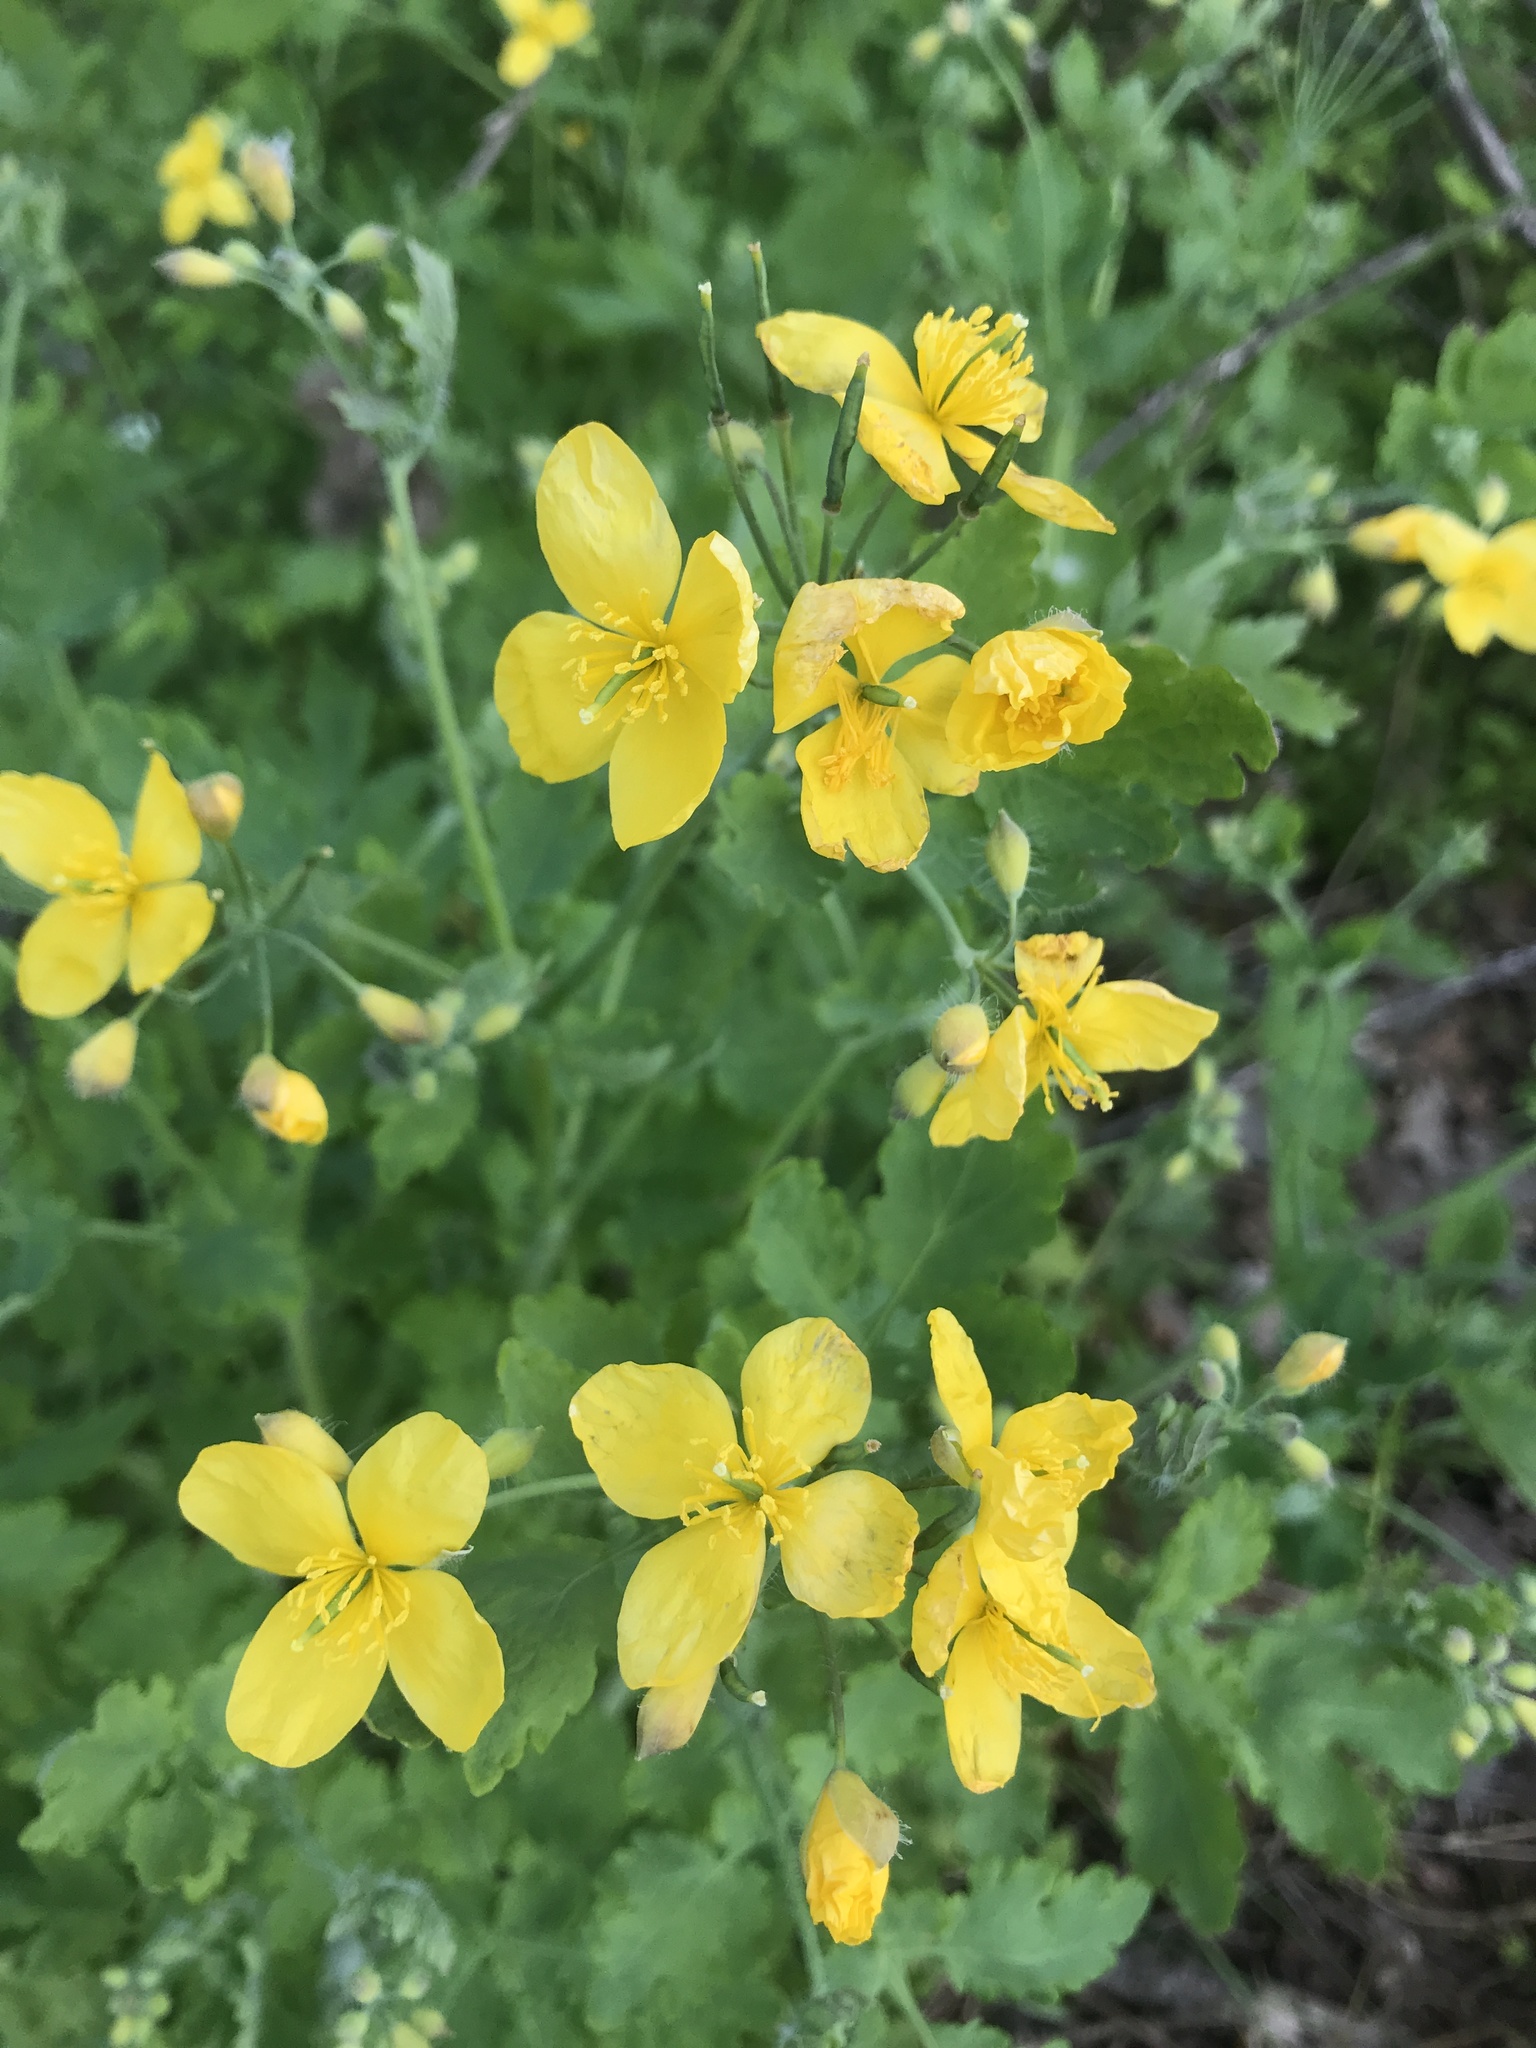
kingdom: Plantae
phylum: Tracheophyta
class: Magnoliopsida
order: Ranunculales
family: Papaveraceae
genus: Chelidonium
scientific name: Chelidonium majus
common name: Greater celandine
